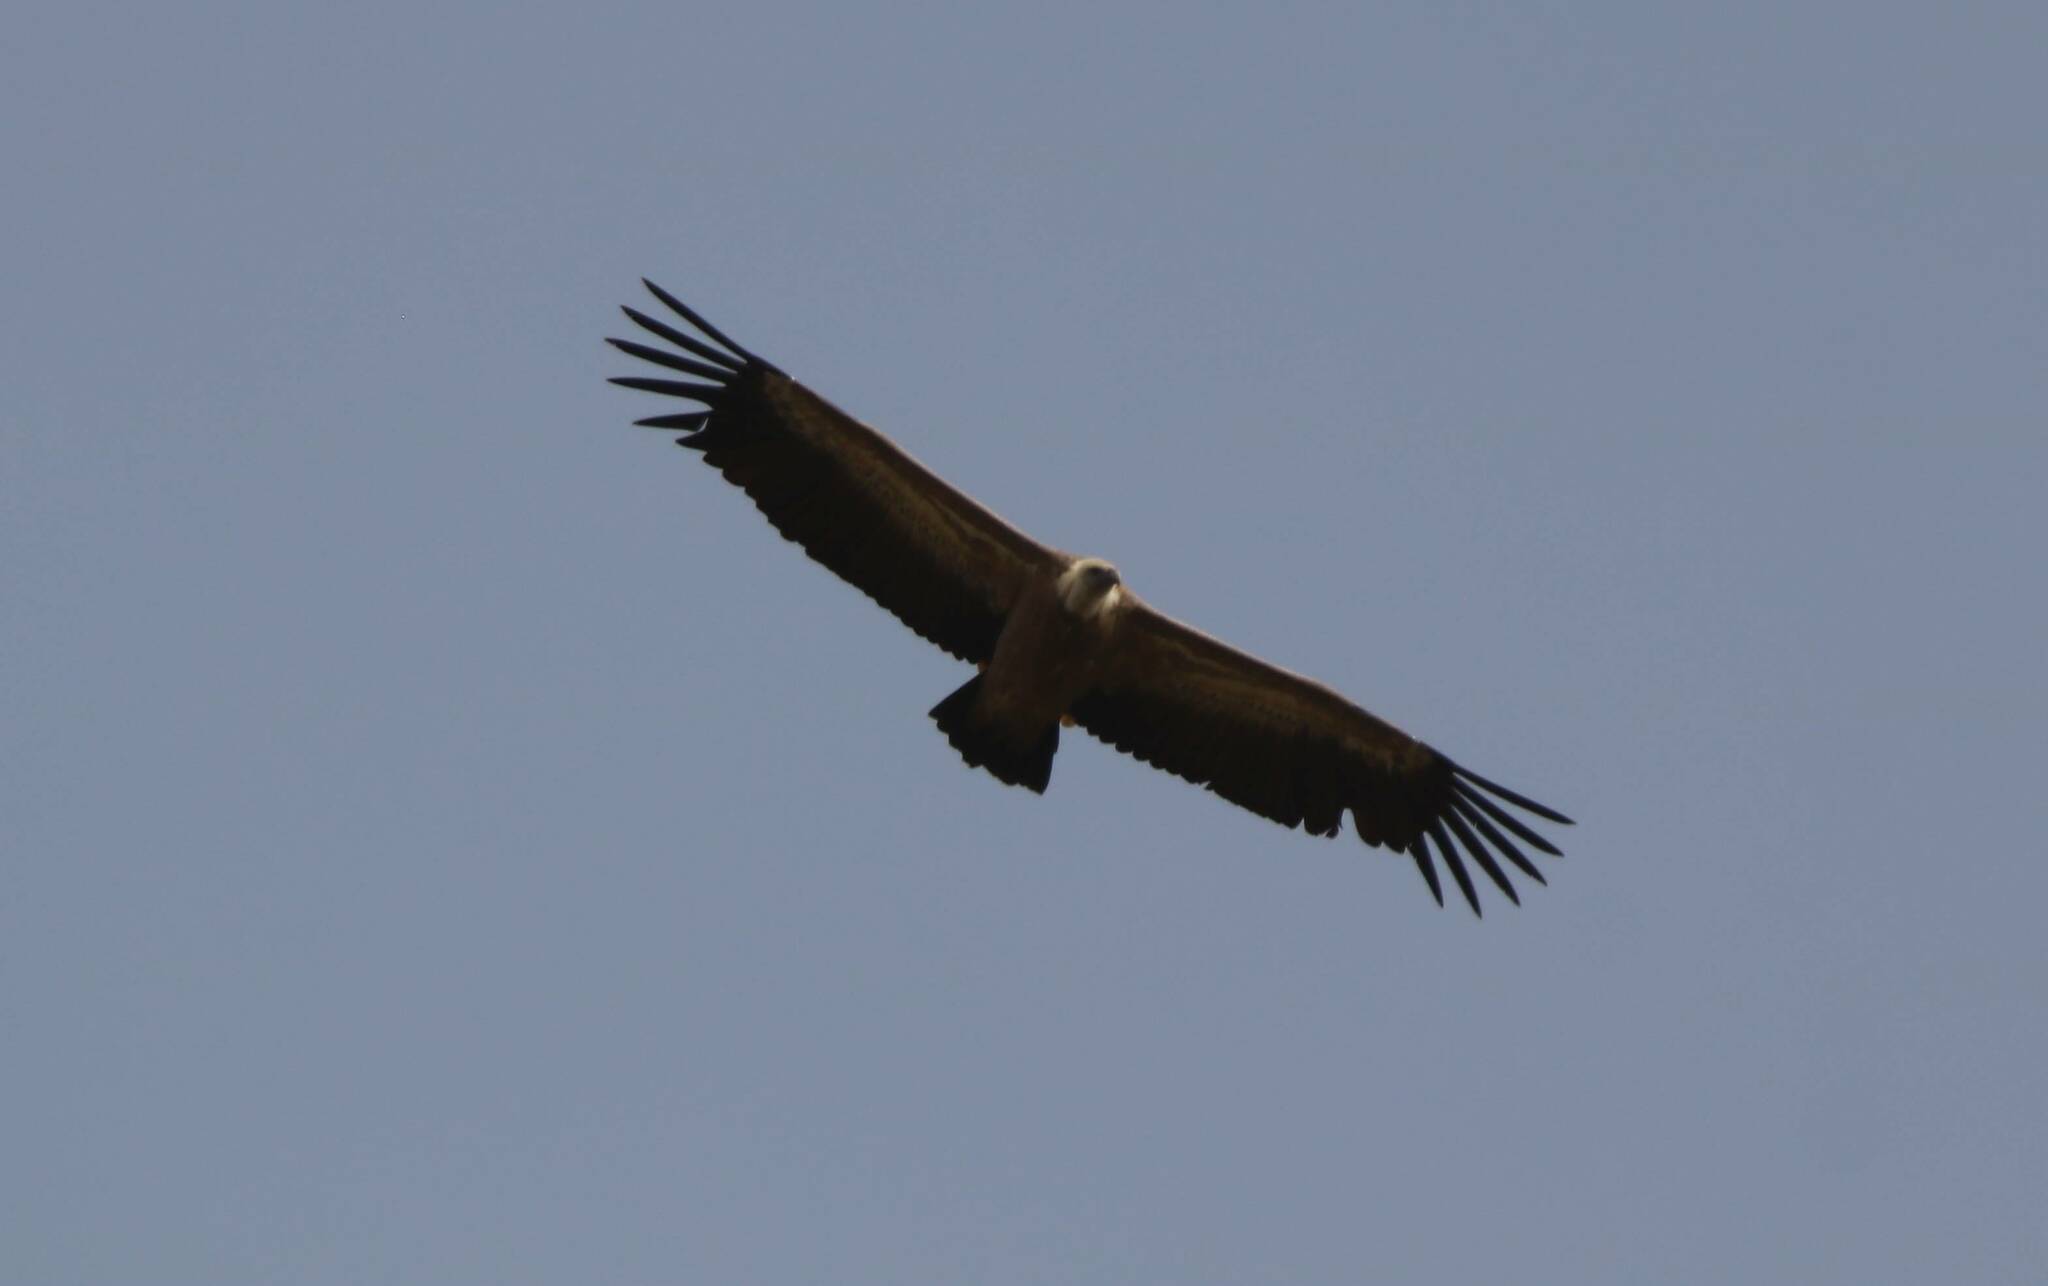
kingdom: Animalia
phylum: Chordata
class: Aves
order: Accipitriformes
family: Accipitridae
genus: Gyps
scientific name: Gyps fulvus
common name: Griffon vulture
